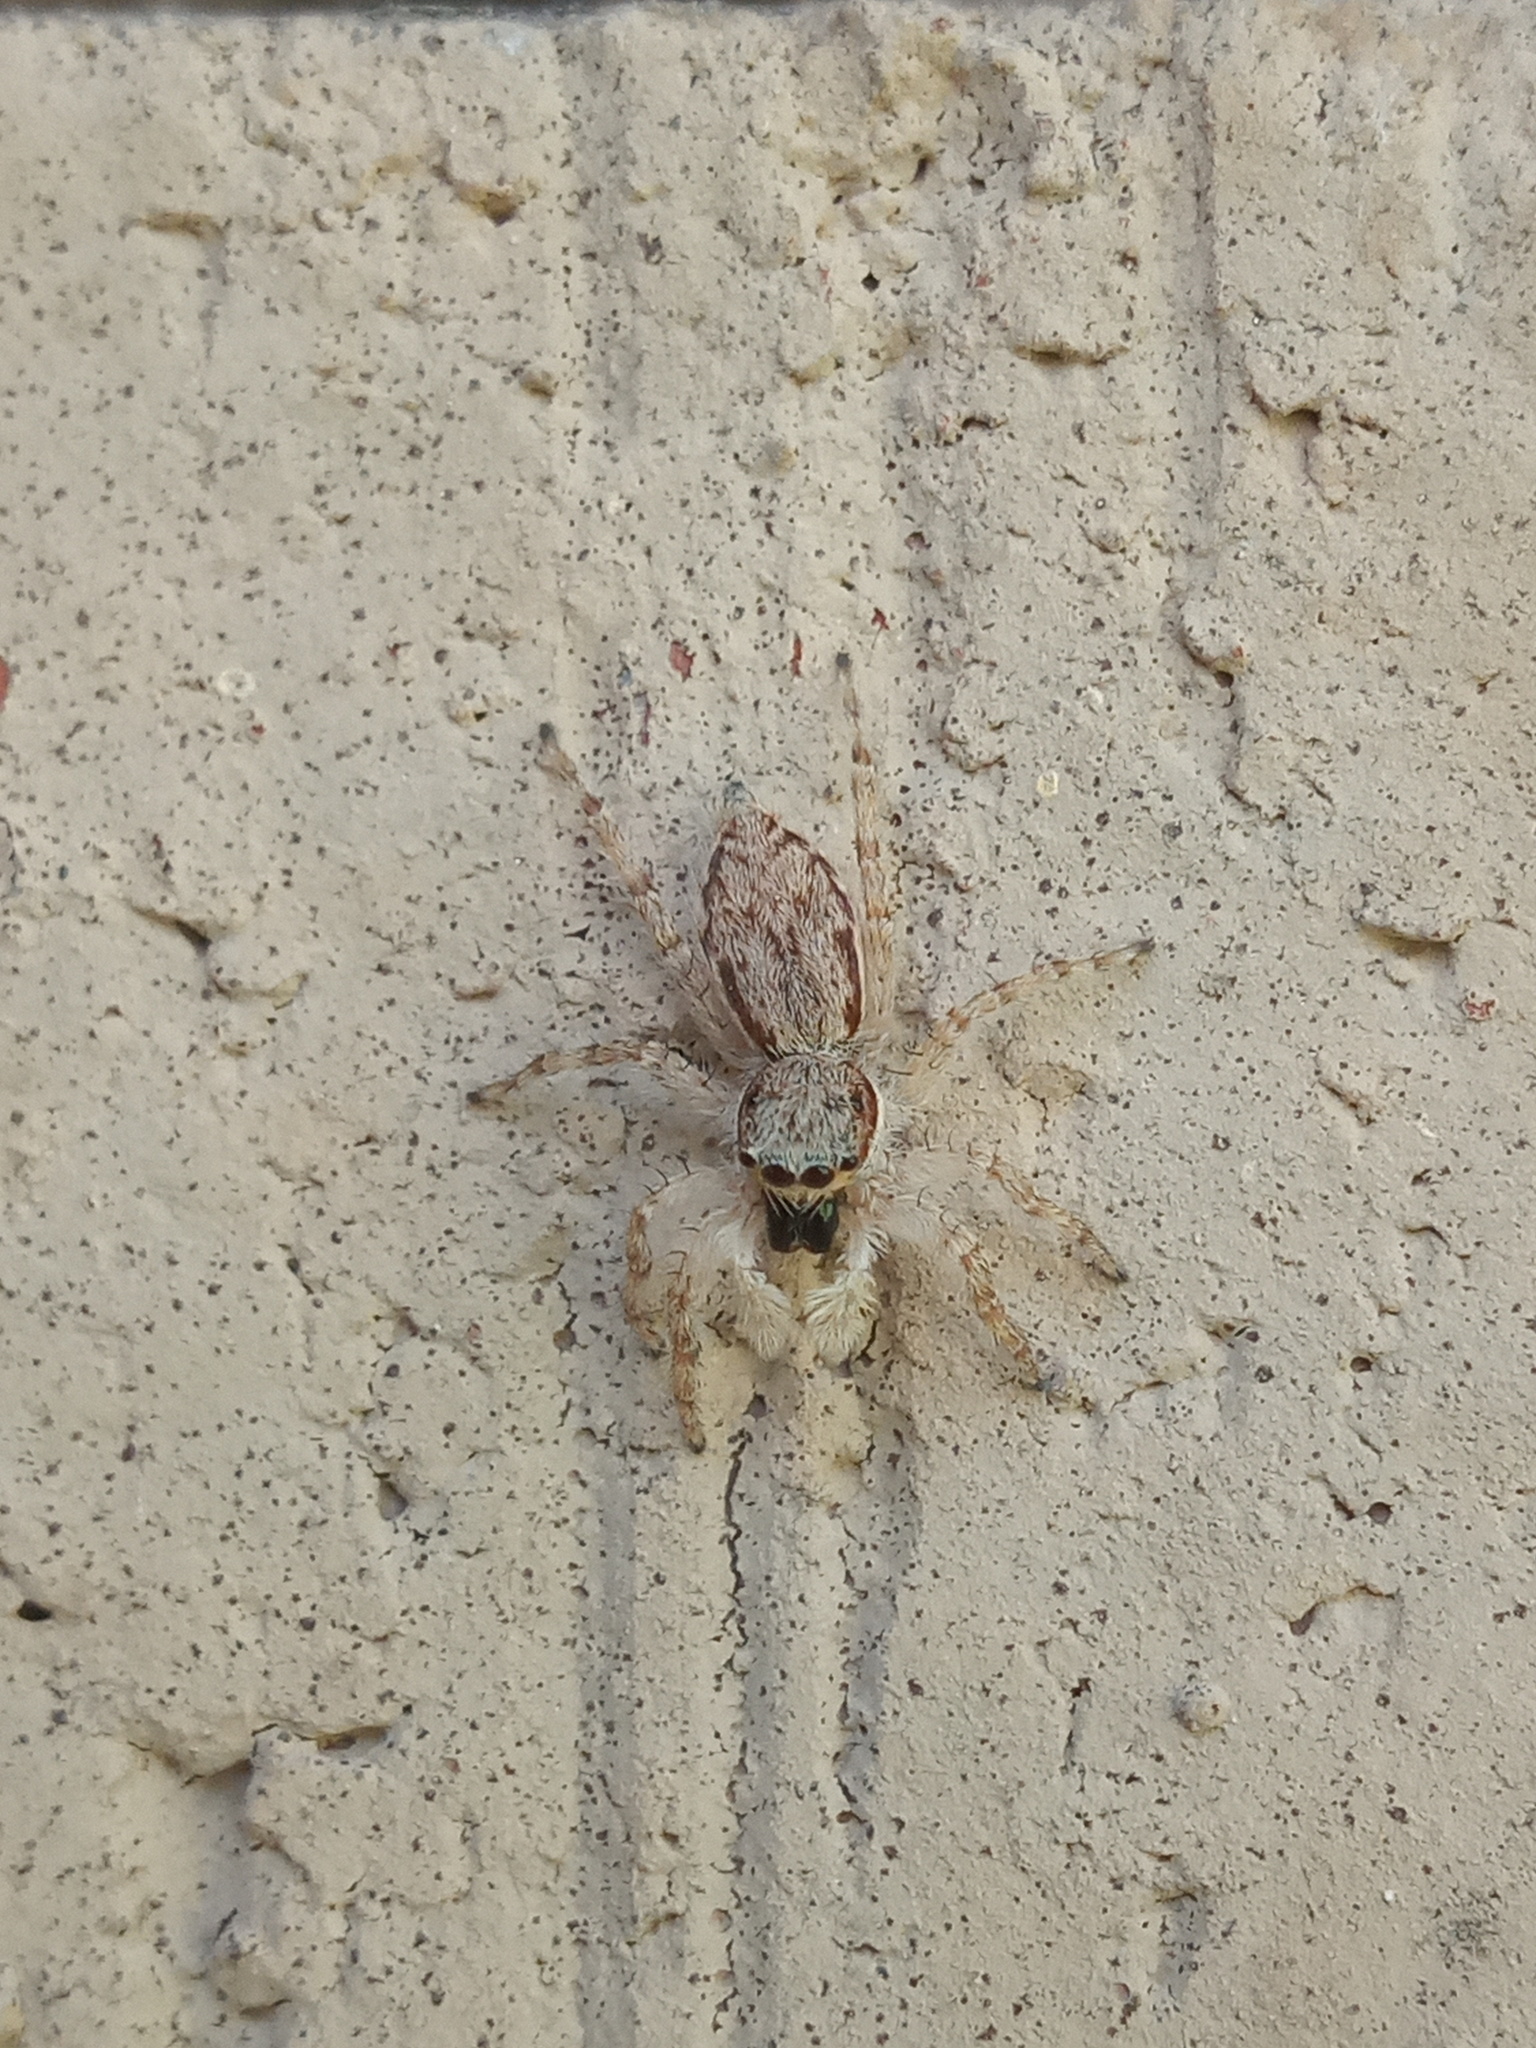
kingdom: Animalia
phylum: Arthropoda
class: Arachnida
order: Araneae
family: Salticidae
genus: Menemerus
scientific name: Menemerus bivittatus
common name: Gray wall jumper
